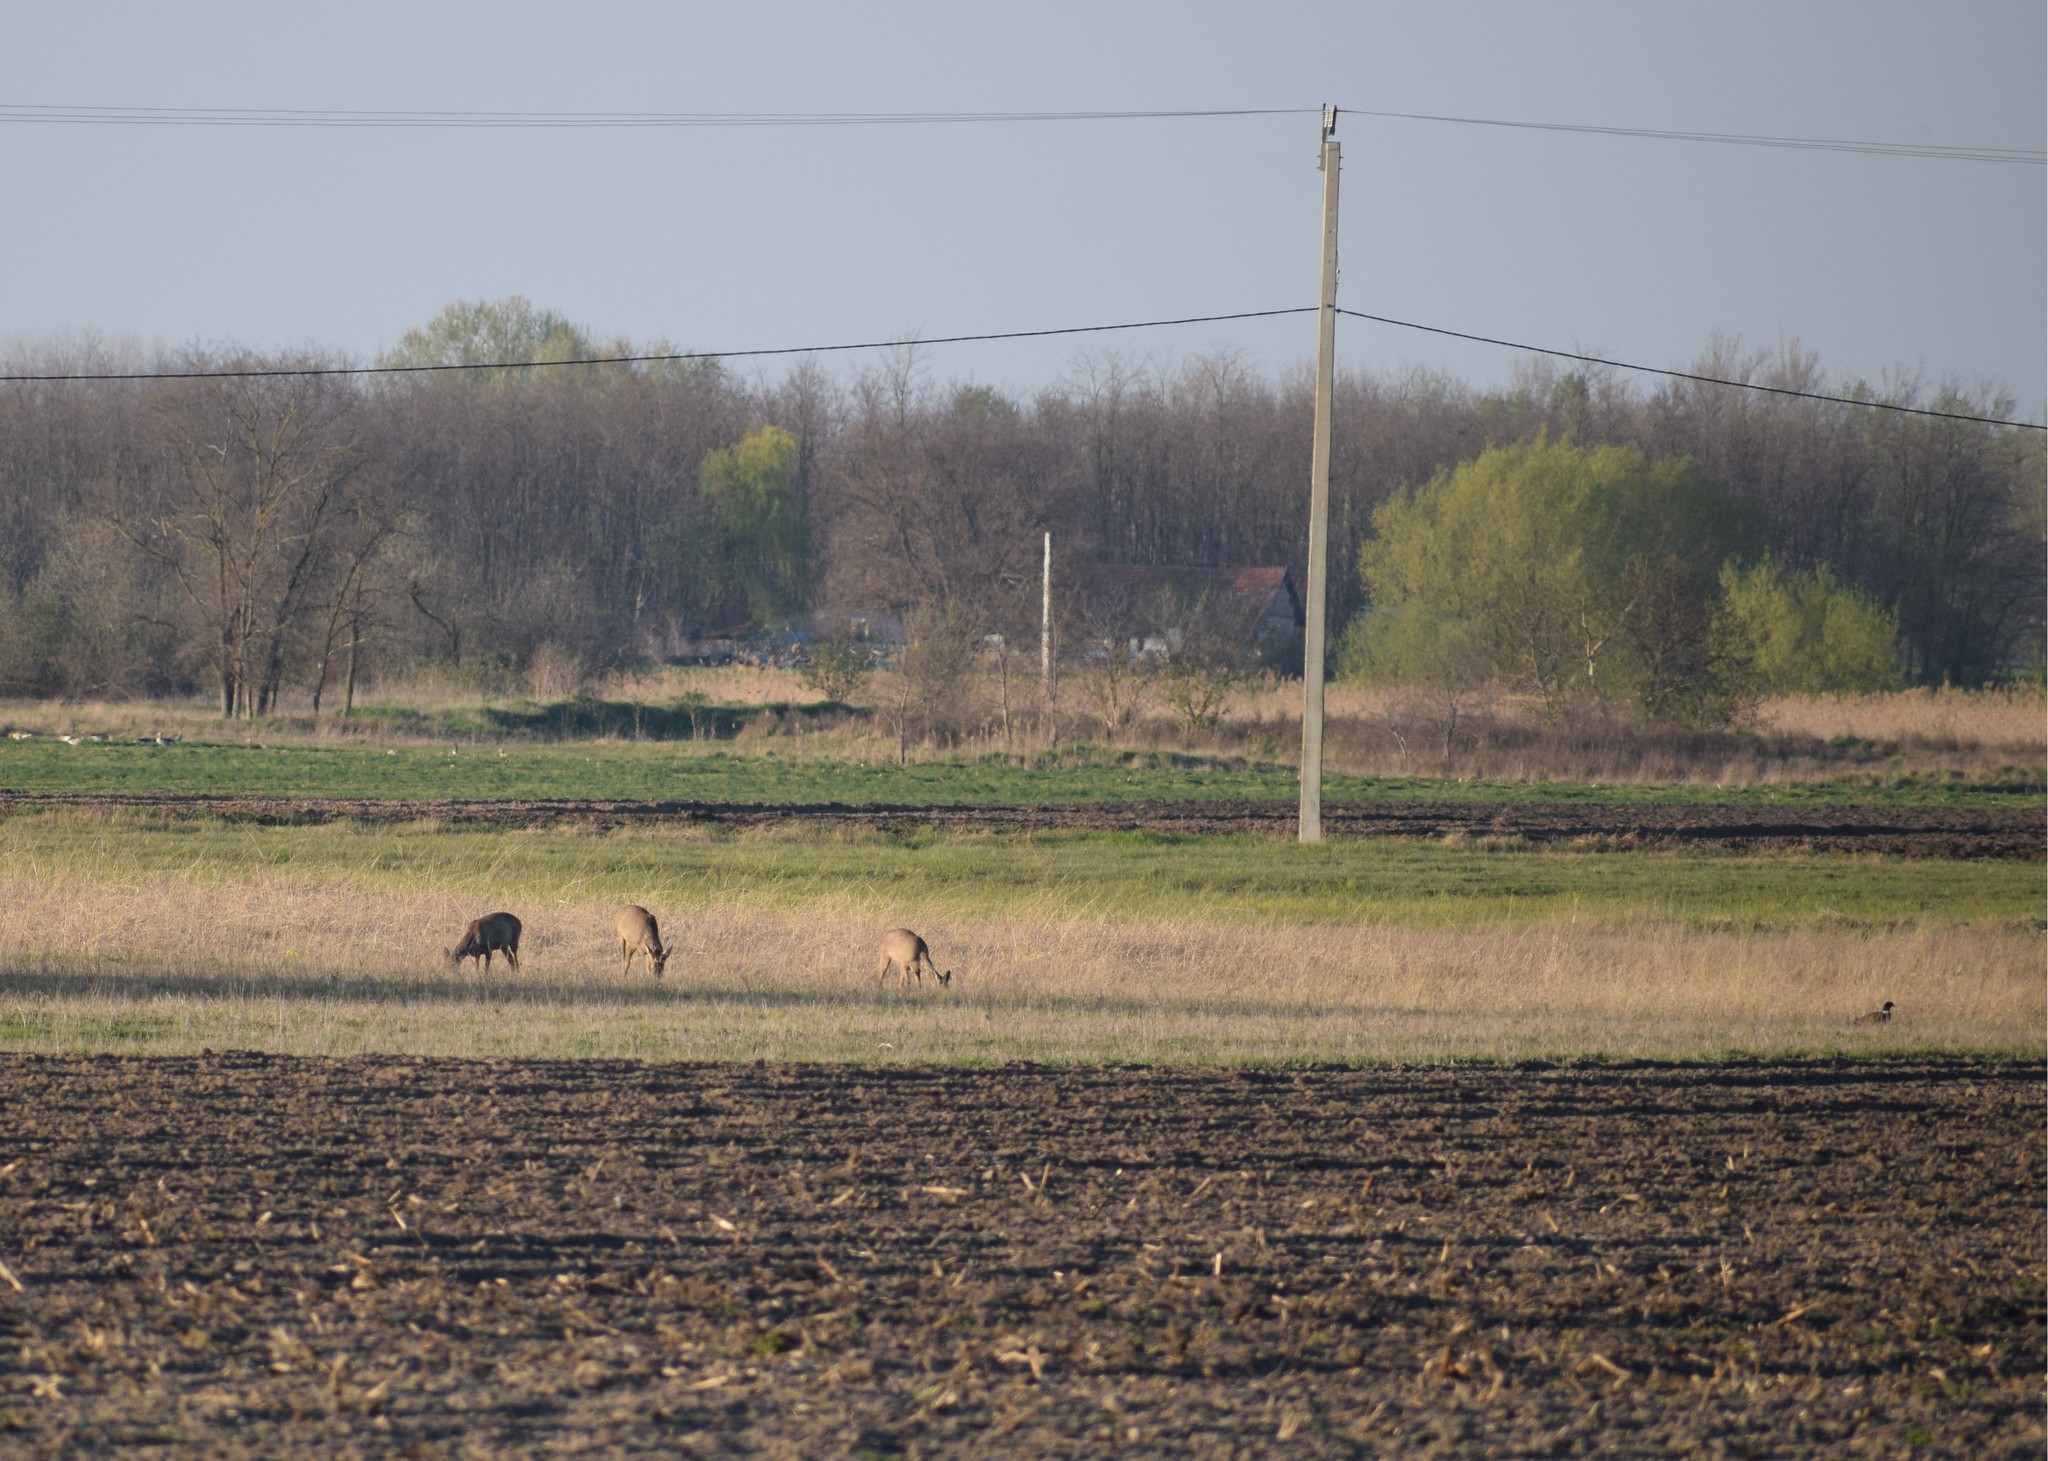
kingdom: Animalia
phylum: Chordata
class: Mammalia
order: Artiodactyla
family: Cervidae
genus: Capreolus
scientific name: Capreolus capreolus
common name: Western roe deer
